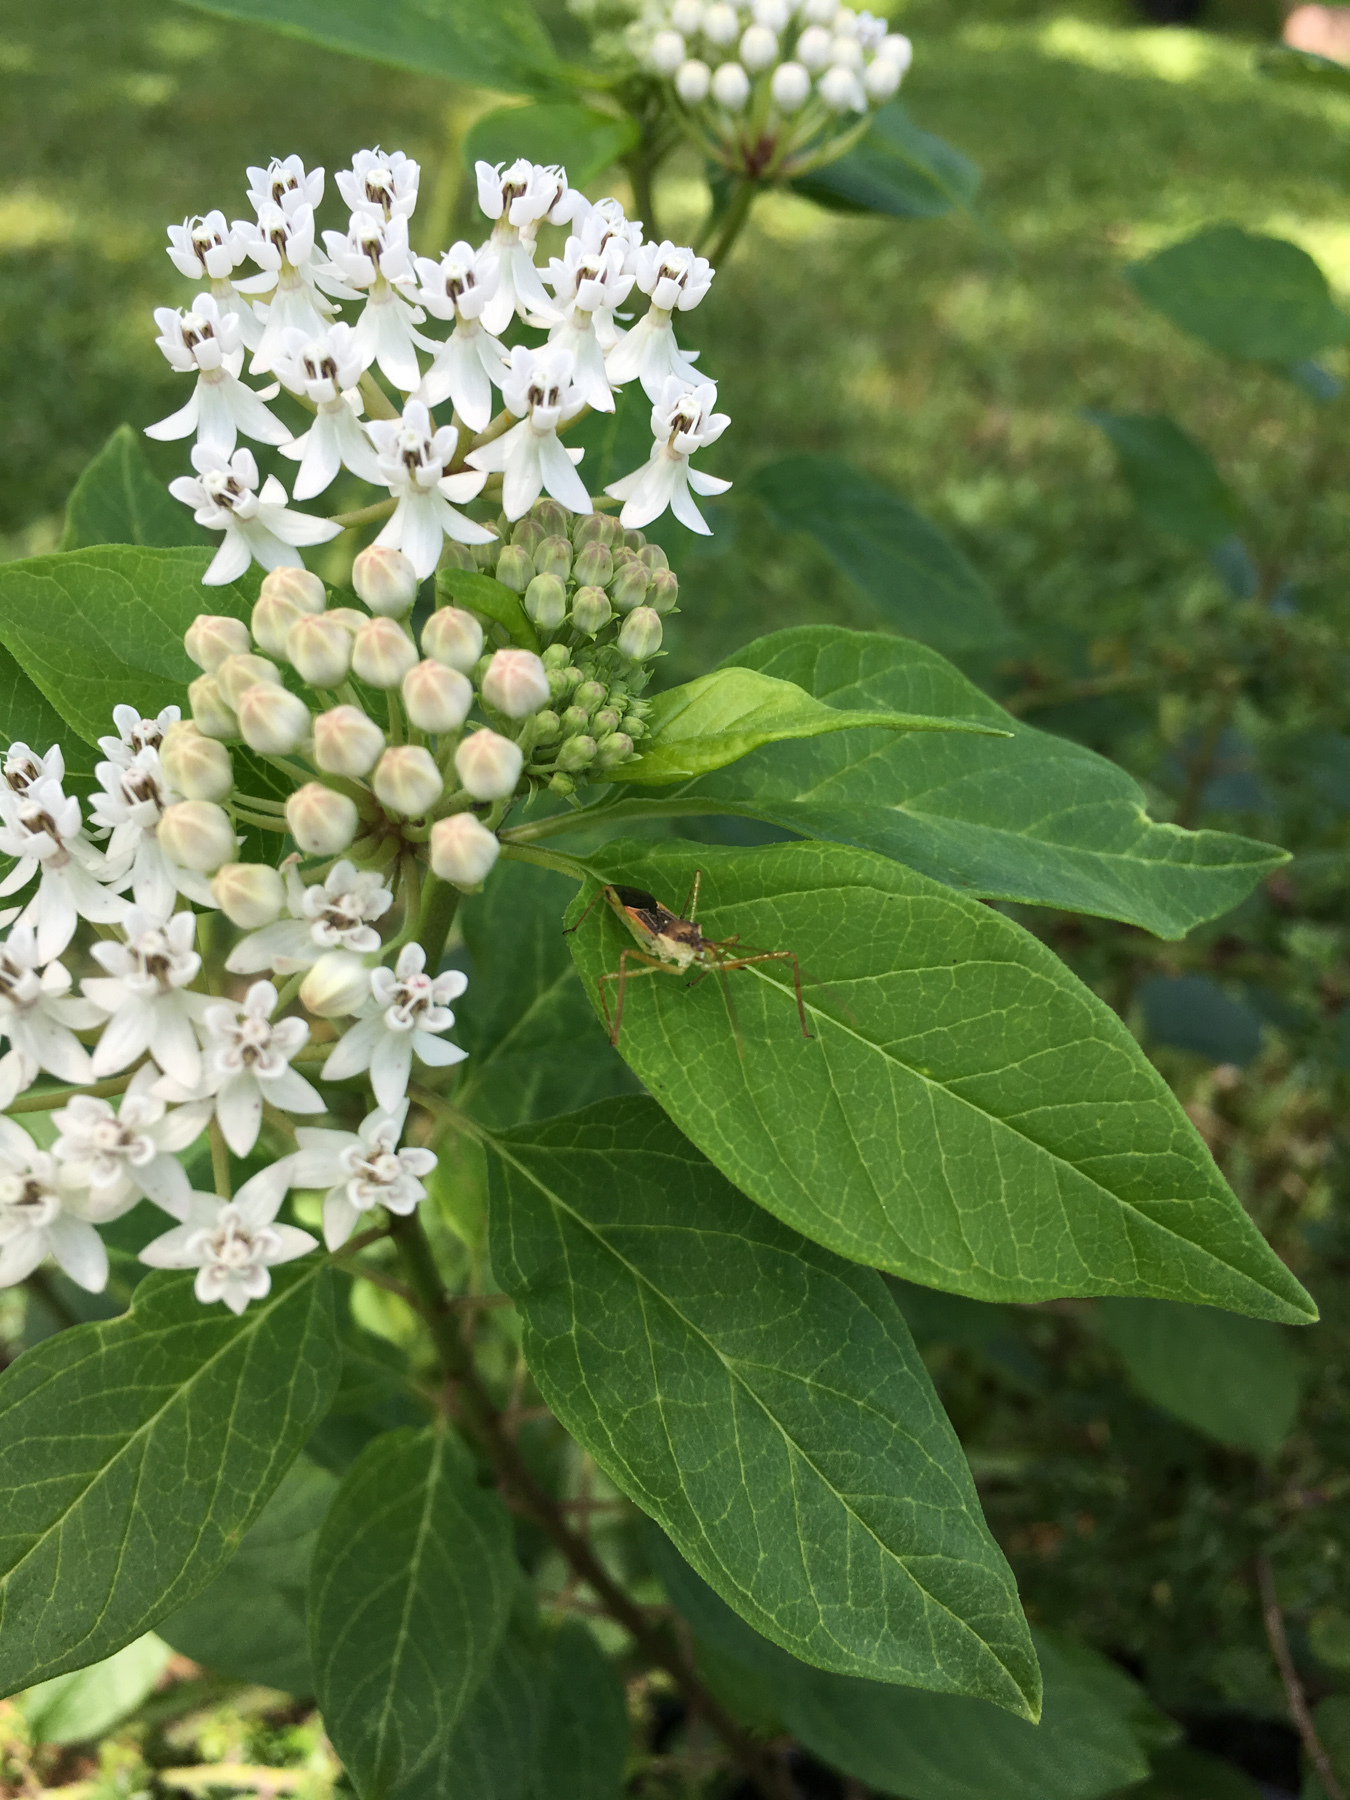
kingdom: Plantae
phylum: Tracheophyta
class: Magnoliopsida
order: Gentianales
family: Apocynaceae
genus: Asclepias
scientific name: Asclepias texana
